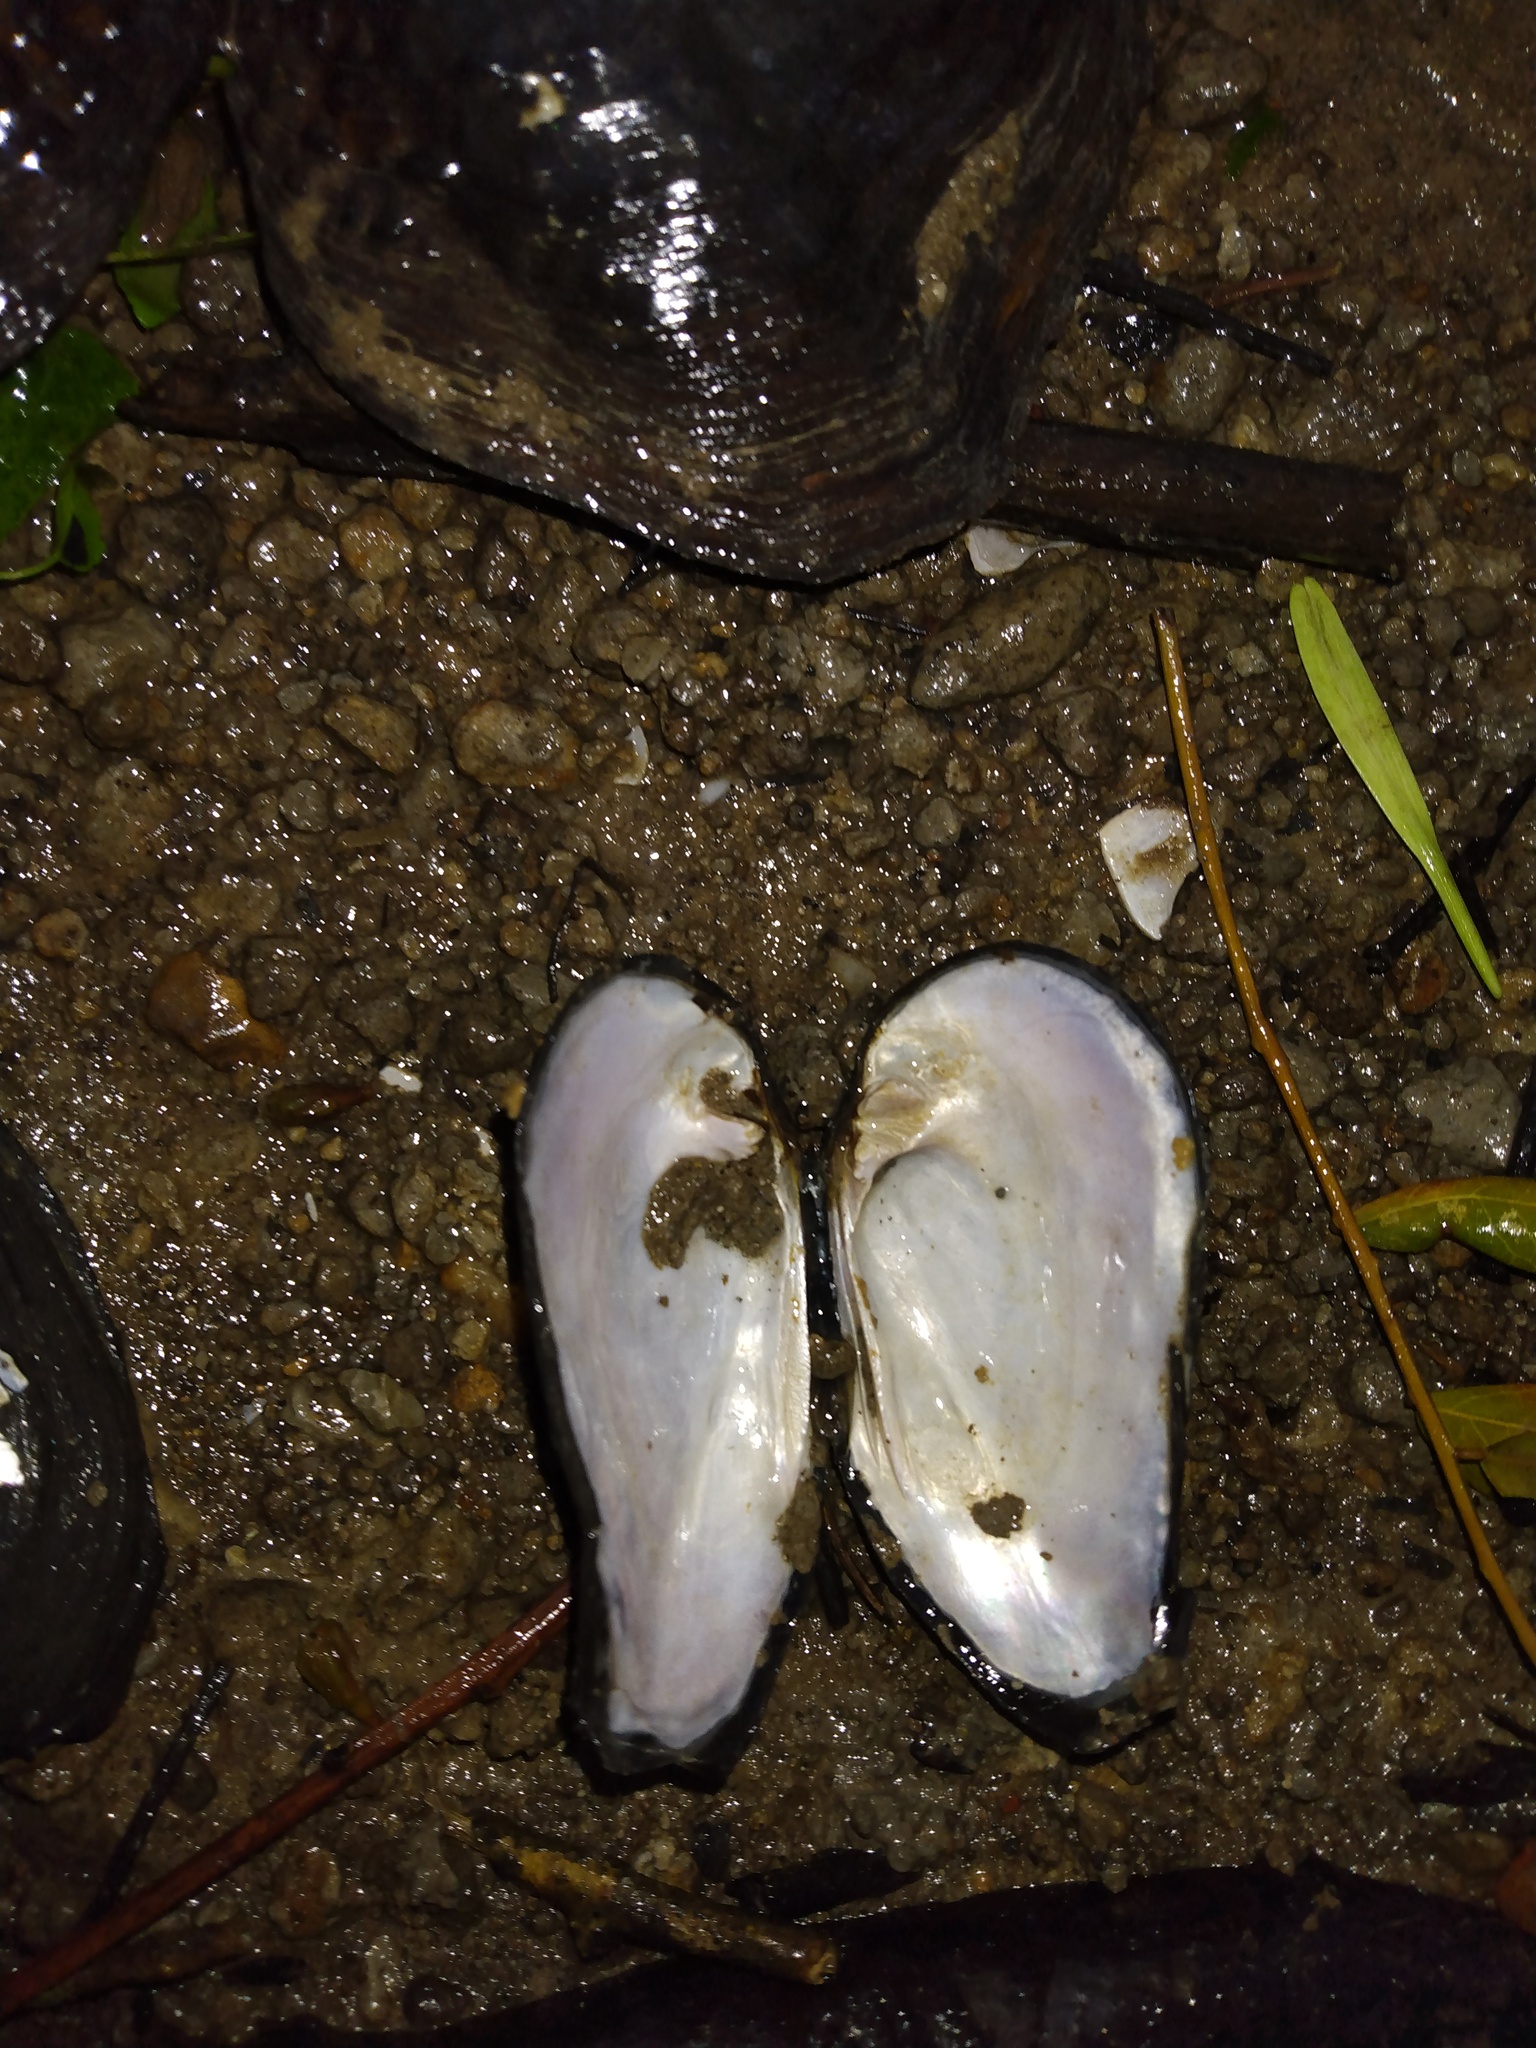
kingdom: Animalia
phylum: Mollusca
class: Bivalvia
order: Unionida
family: Unionidae
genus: Tritogonia
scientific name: Tritogonia verrucosa
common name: Pistolgrip
